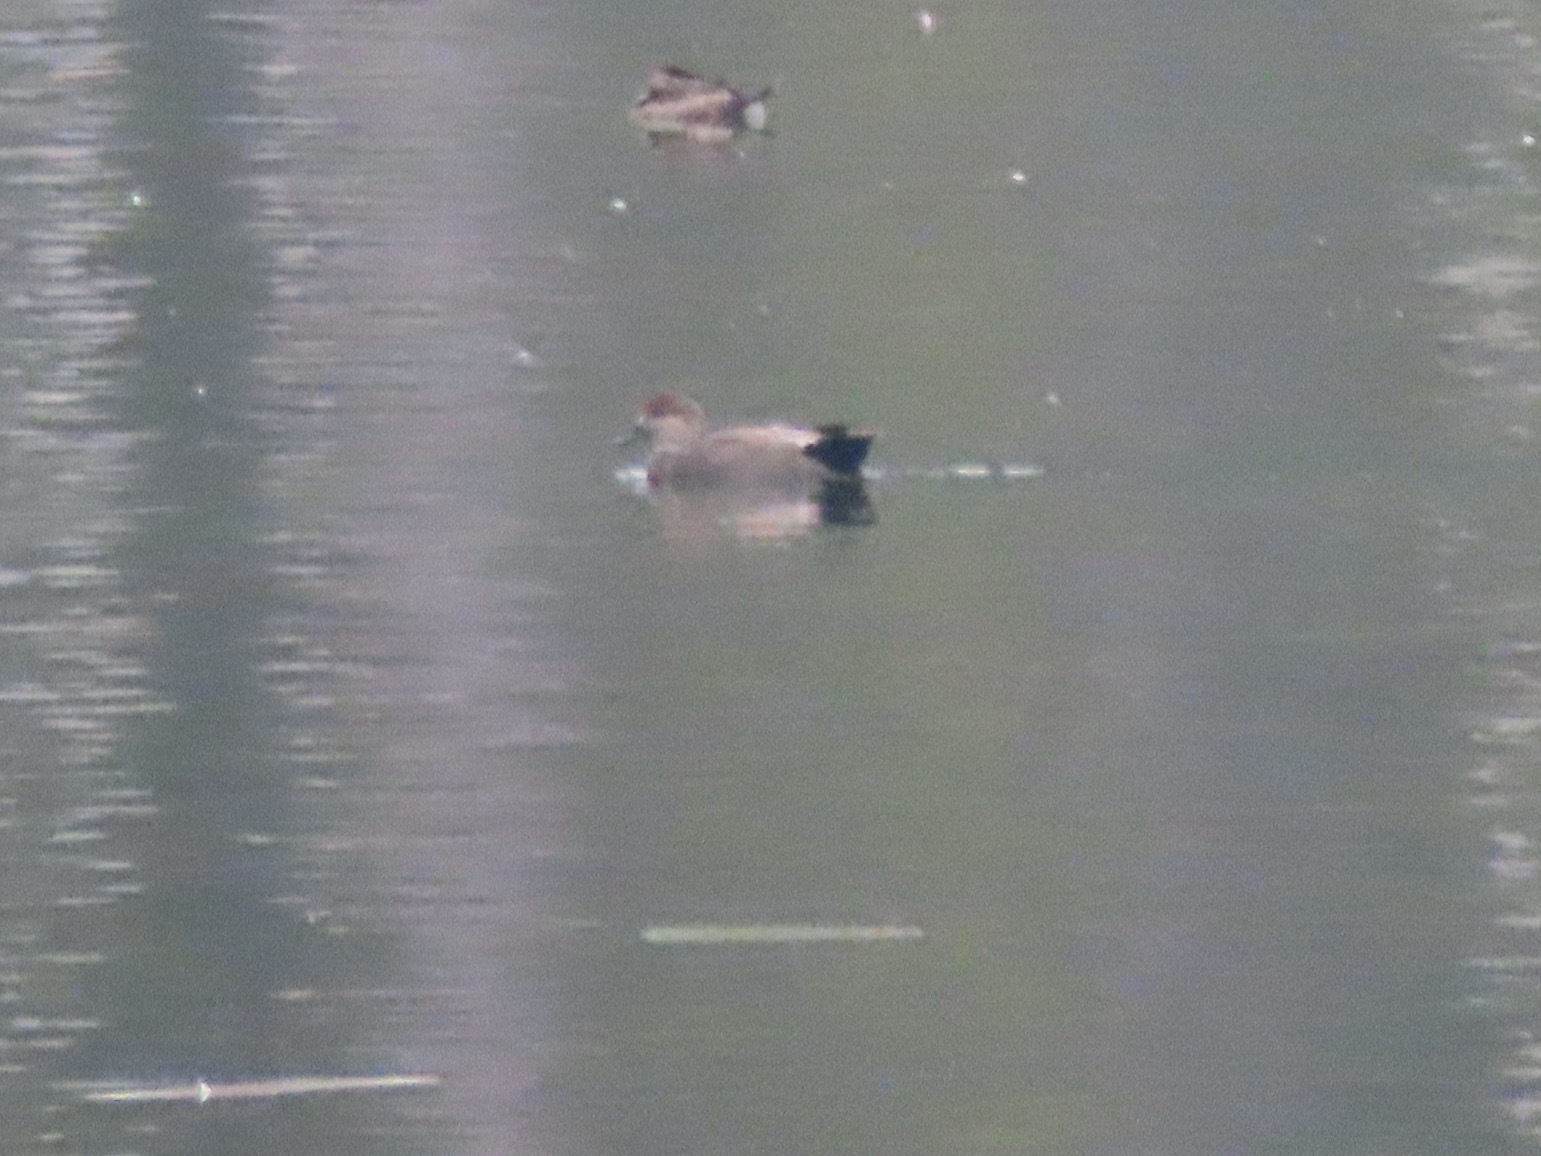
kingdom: Animalia
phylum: Chordata
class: Aves
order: Anseriformes
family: Anatidae
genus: Mareca
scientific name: Mareca strepera
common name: Gadwall
